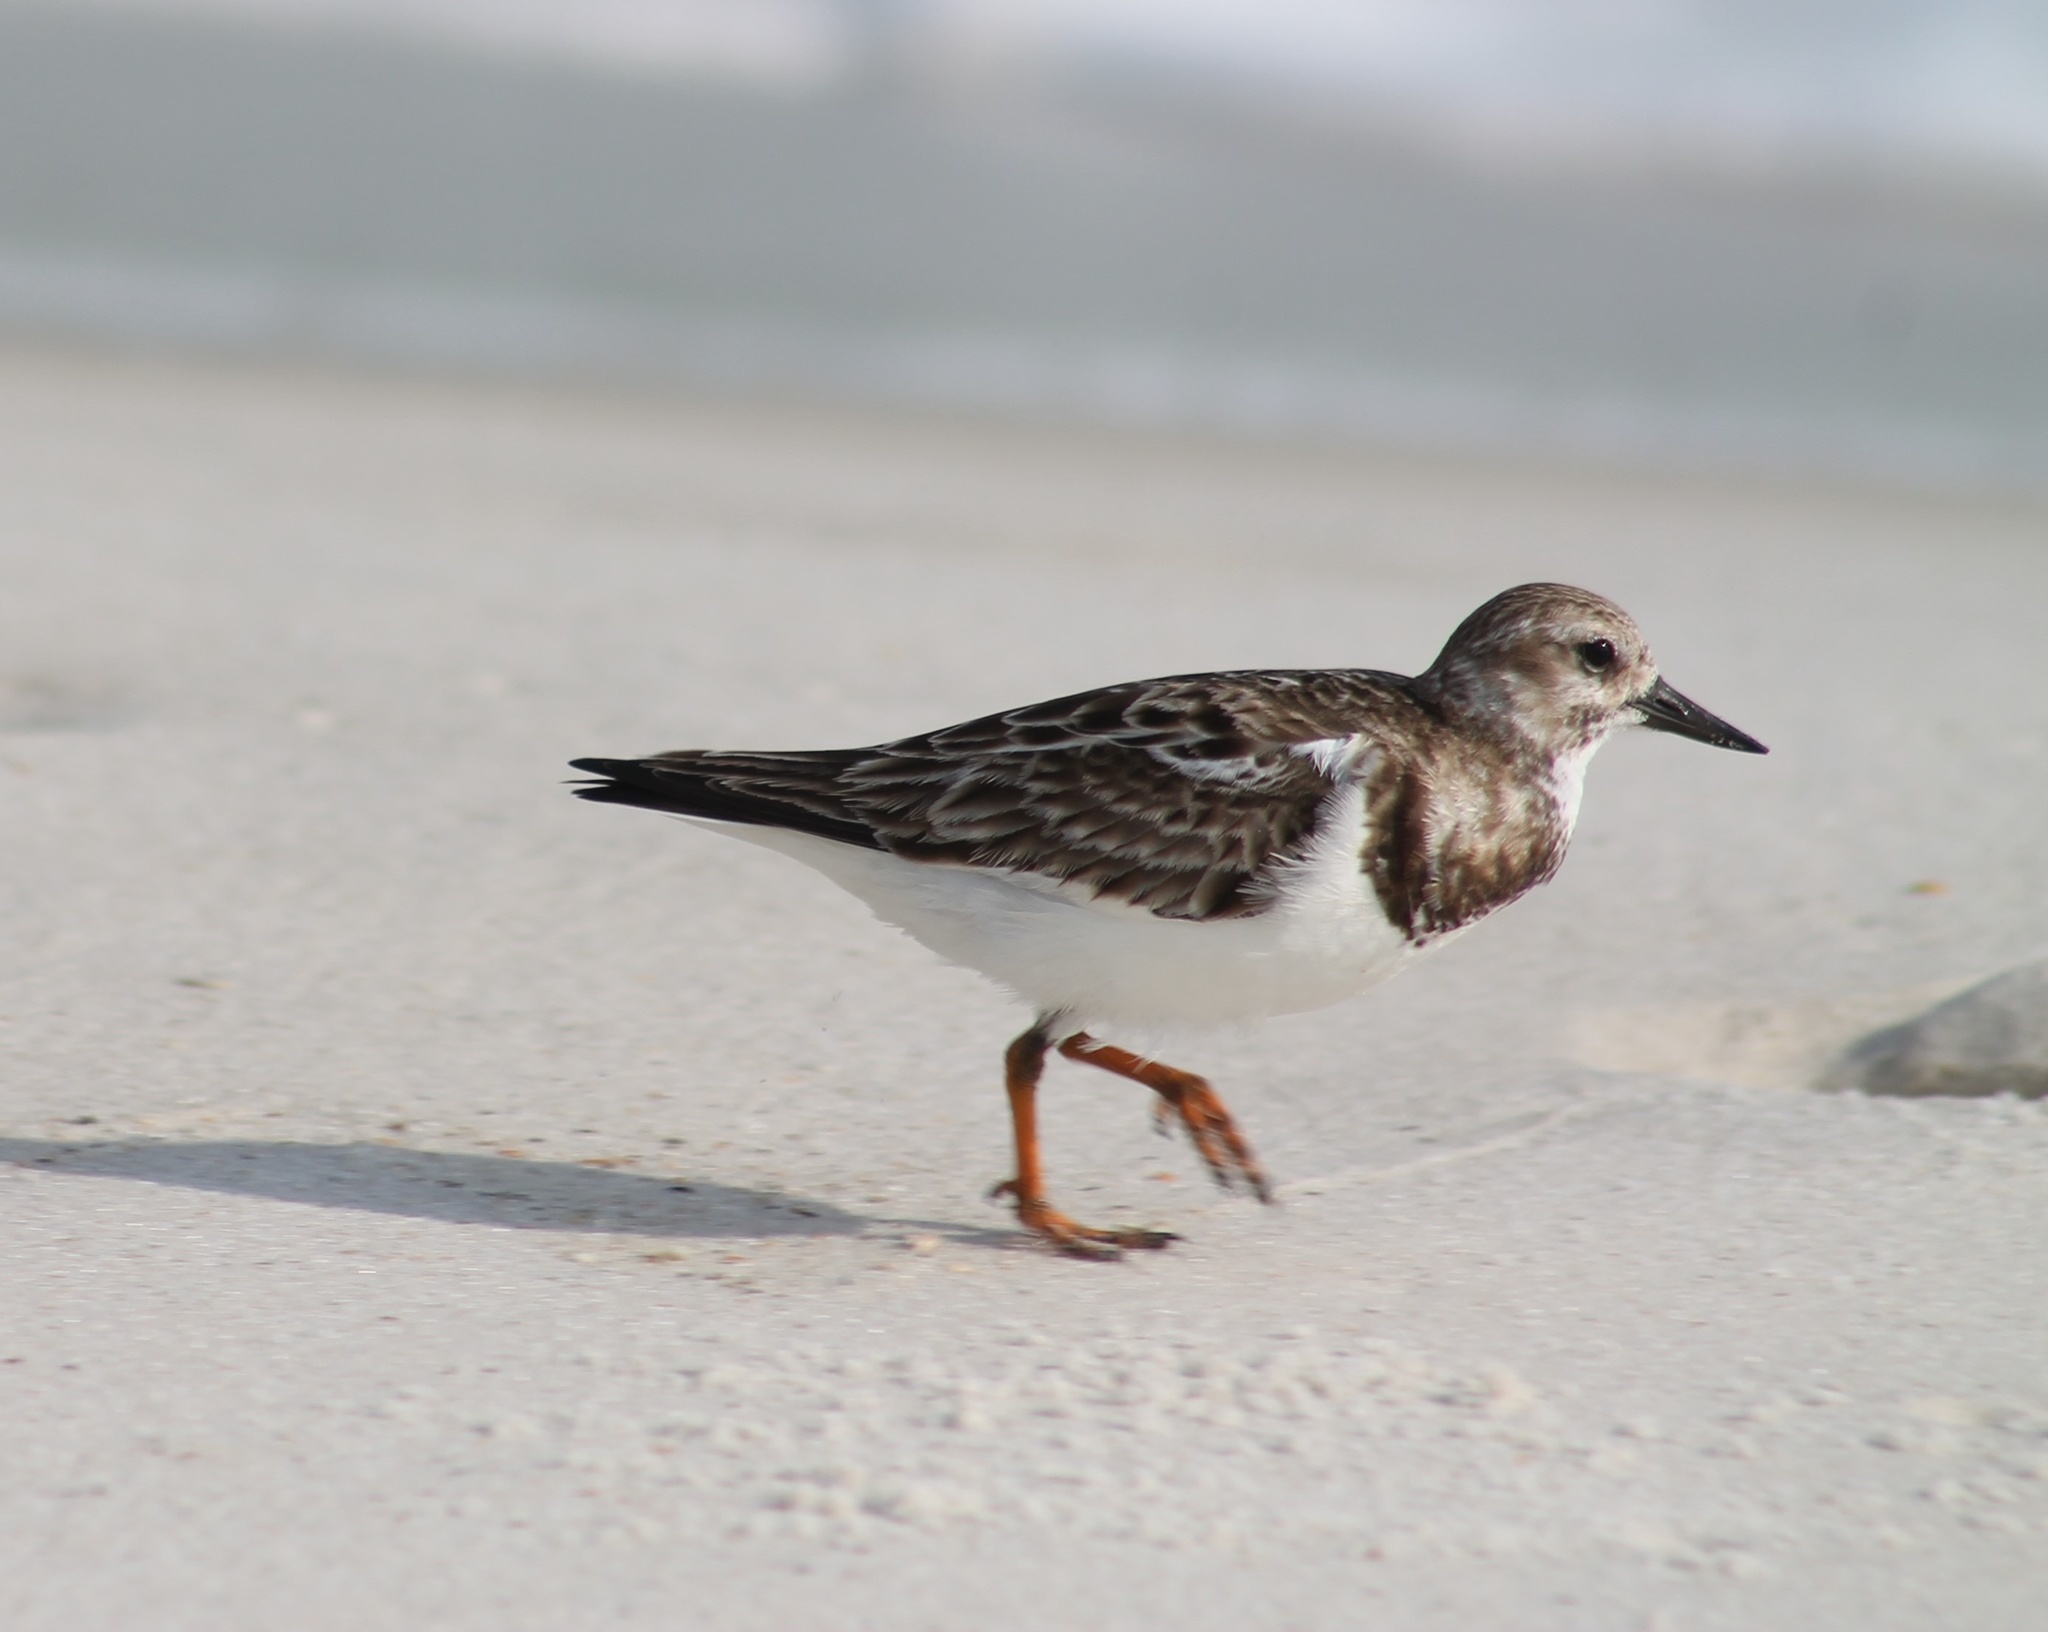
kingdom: Animalia
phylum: Chordata
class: Aves
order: Charadriiformes
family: Scolopacidae
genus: Arenaria
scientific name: Arenaria interpres
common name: Ruddy turnstone
